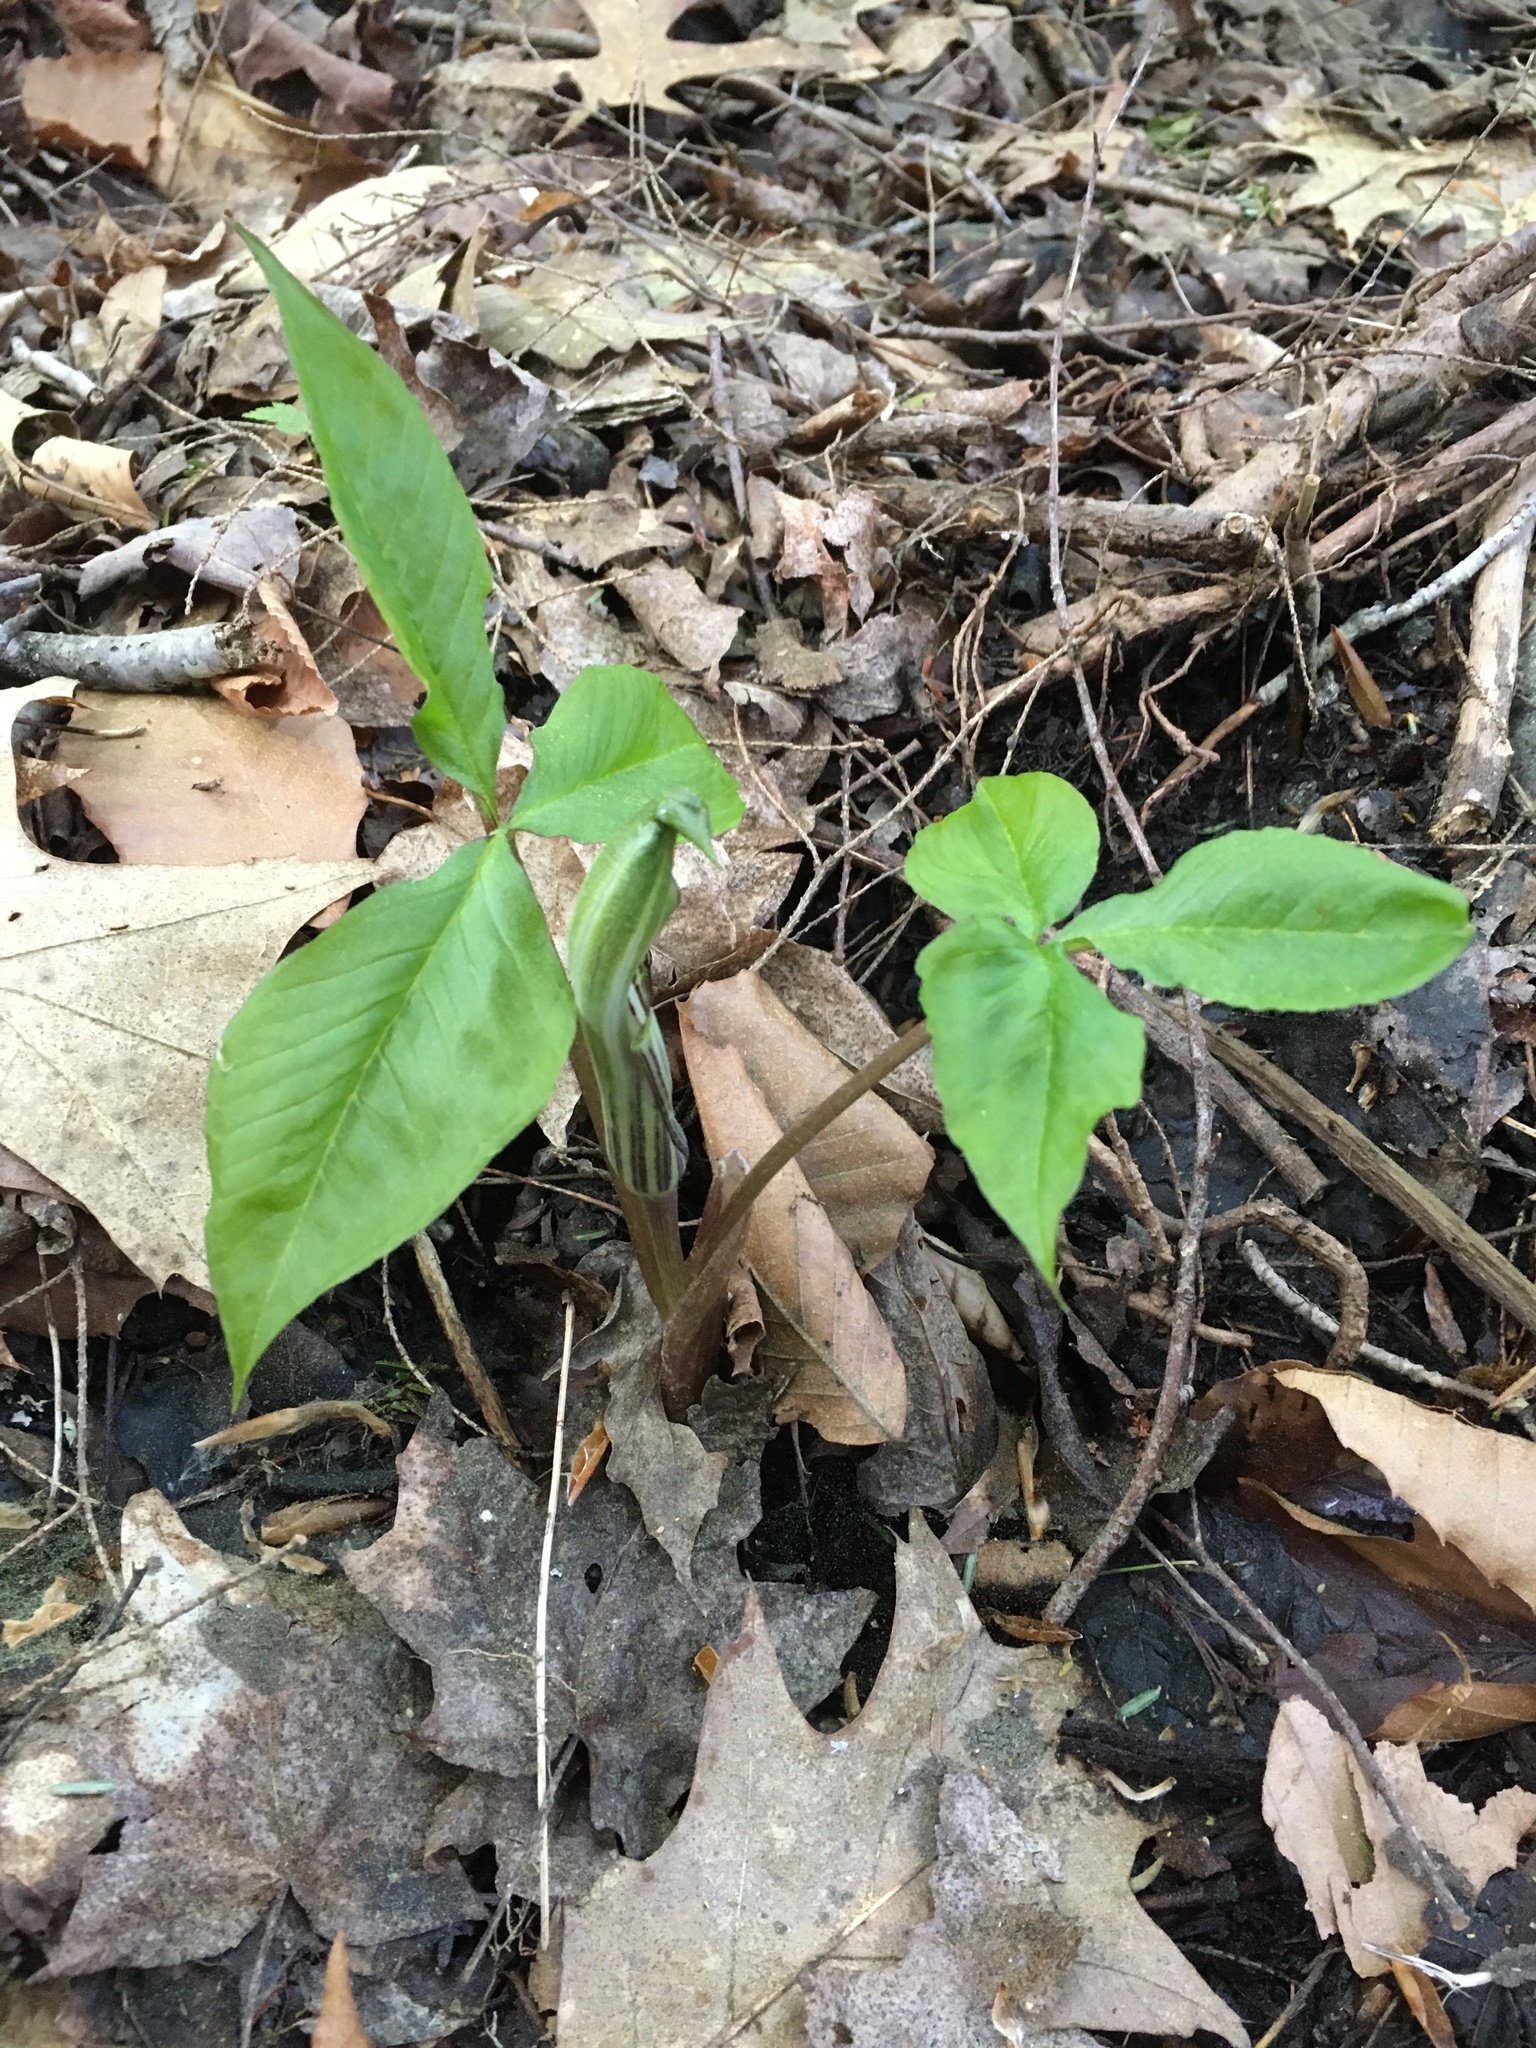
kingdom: Plantae
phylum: Tracheophyta
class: Liliopsida
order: Alismatales
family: Araceae
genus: Arisaema
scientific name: Arisaema triphyllum
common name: Jack-in-the-pulpit
